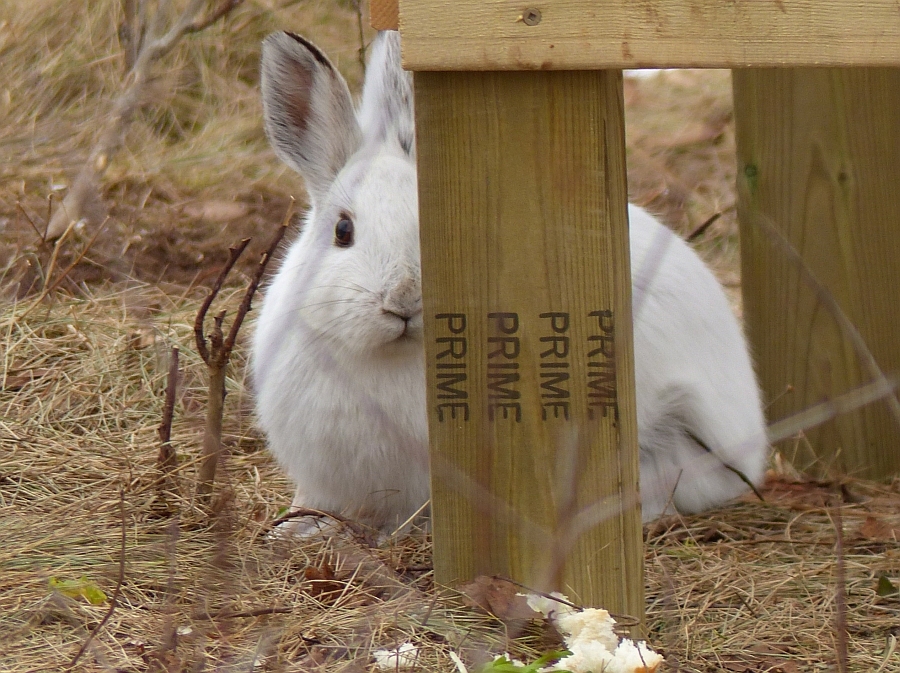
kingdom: Animalia
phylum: Chordata
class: Mammalia
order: Lagomorpha
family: Leporidae
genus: Lepus
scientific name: Lepus americanus
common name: Snowshoe hare
